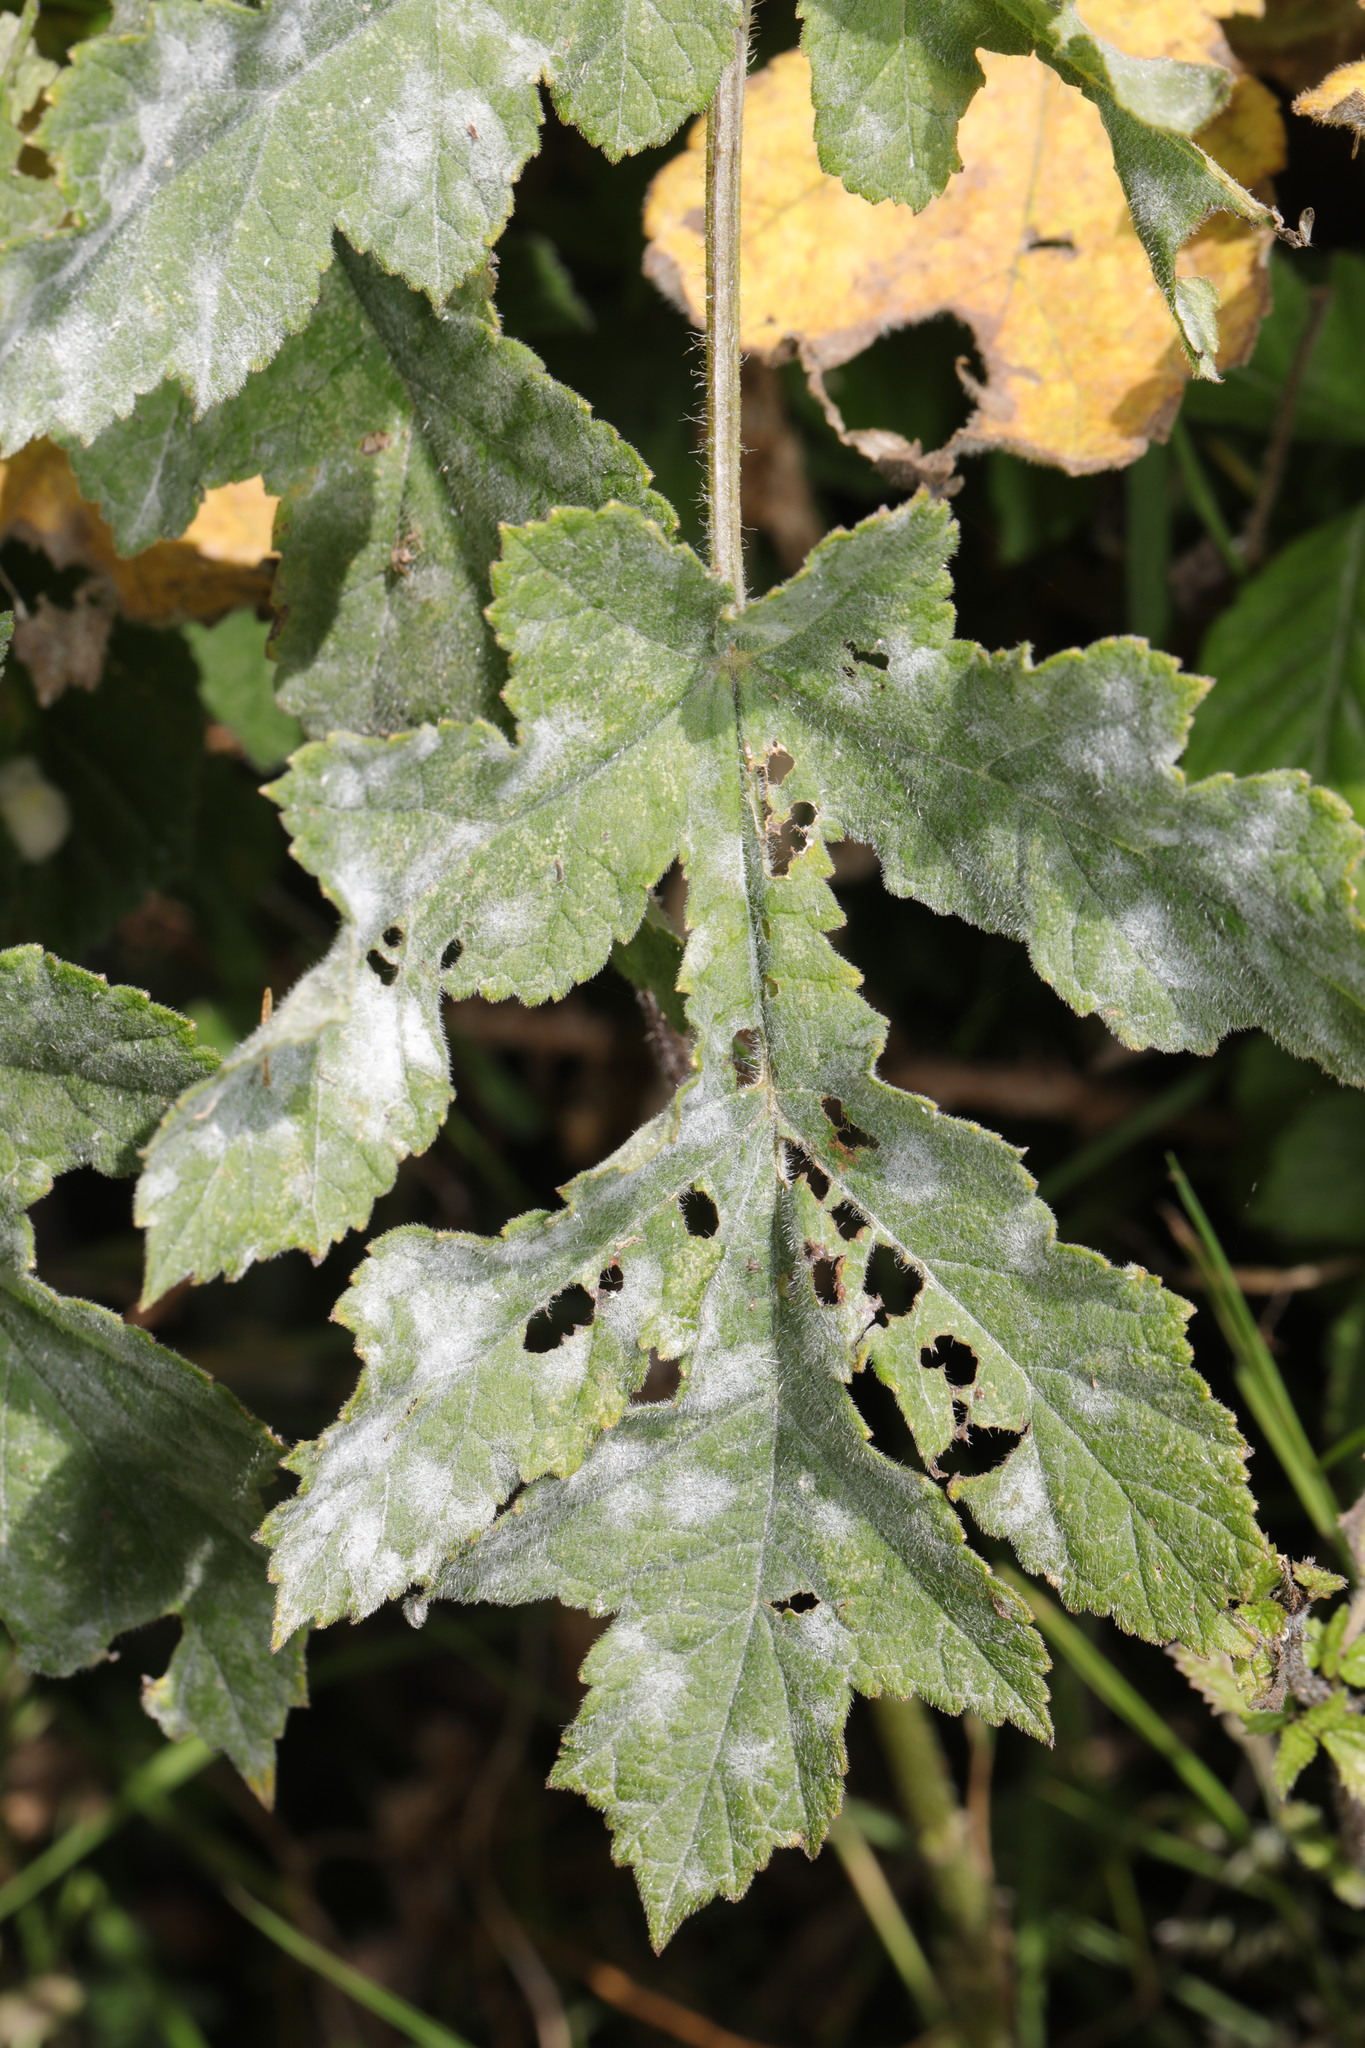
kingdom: Fungi
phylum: Ascomycota
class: Leotiomycetes
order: Helotiales
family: Erysiphaceae
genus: Erysiphe
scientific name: Erysiphe heraclei
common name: Umbellifer mildew
